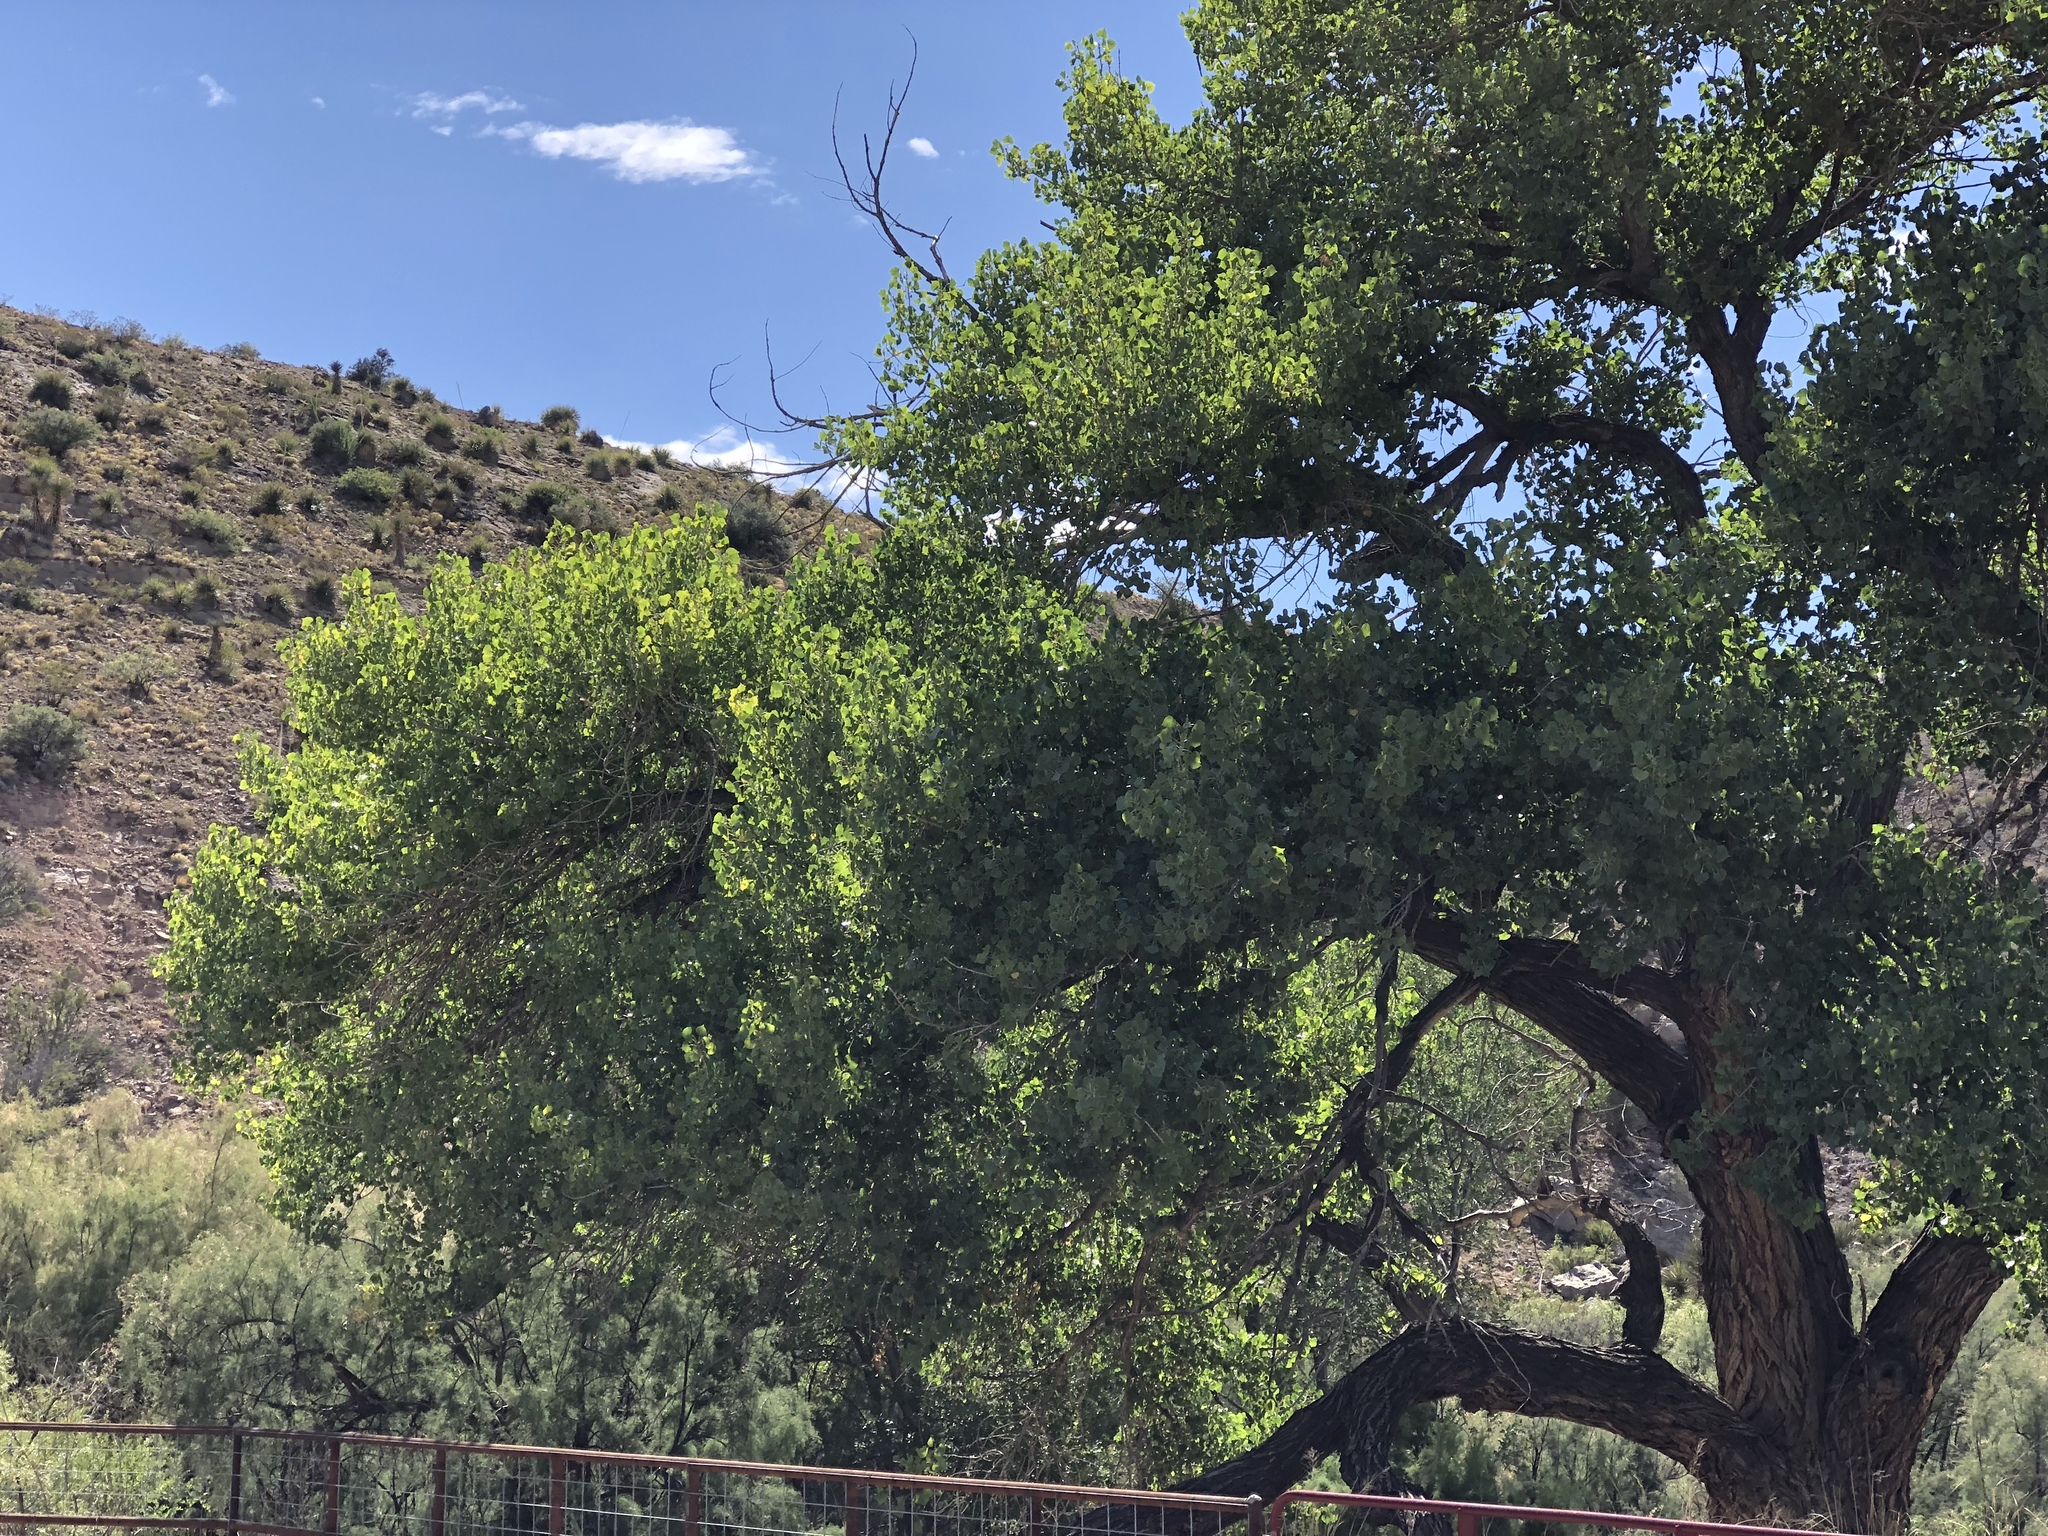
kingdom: Plantae
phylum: Tracheophyta
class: Magnoliopsida
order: Malpighiales
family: Salicaceae
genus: Populus
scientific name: Populus fremontii
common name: Fremont's cottonwood
